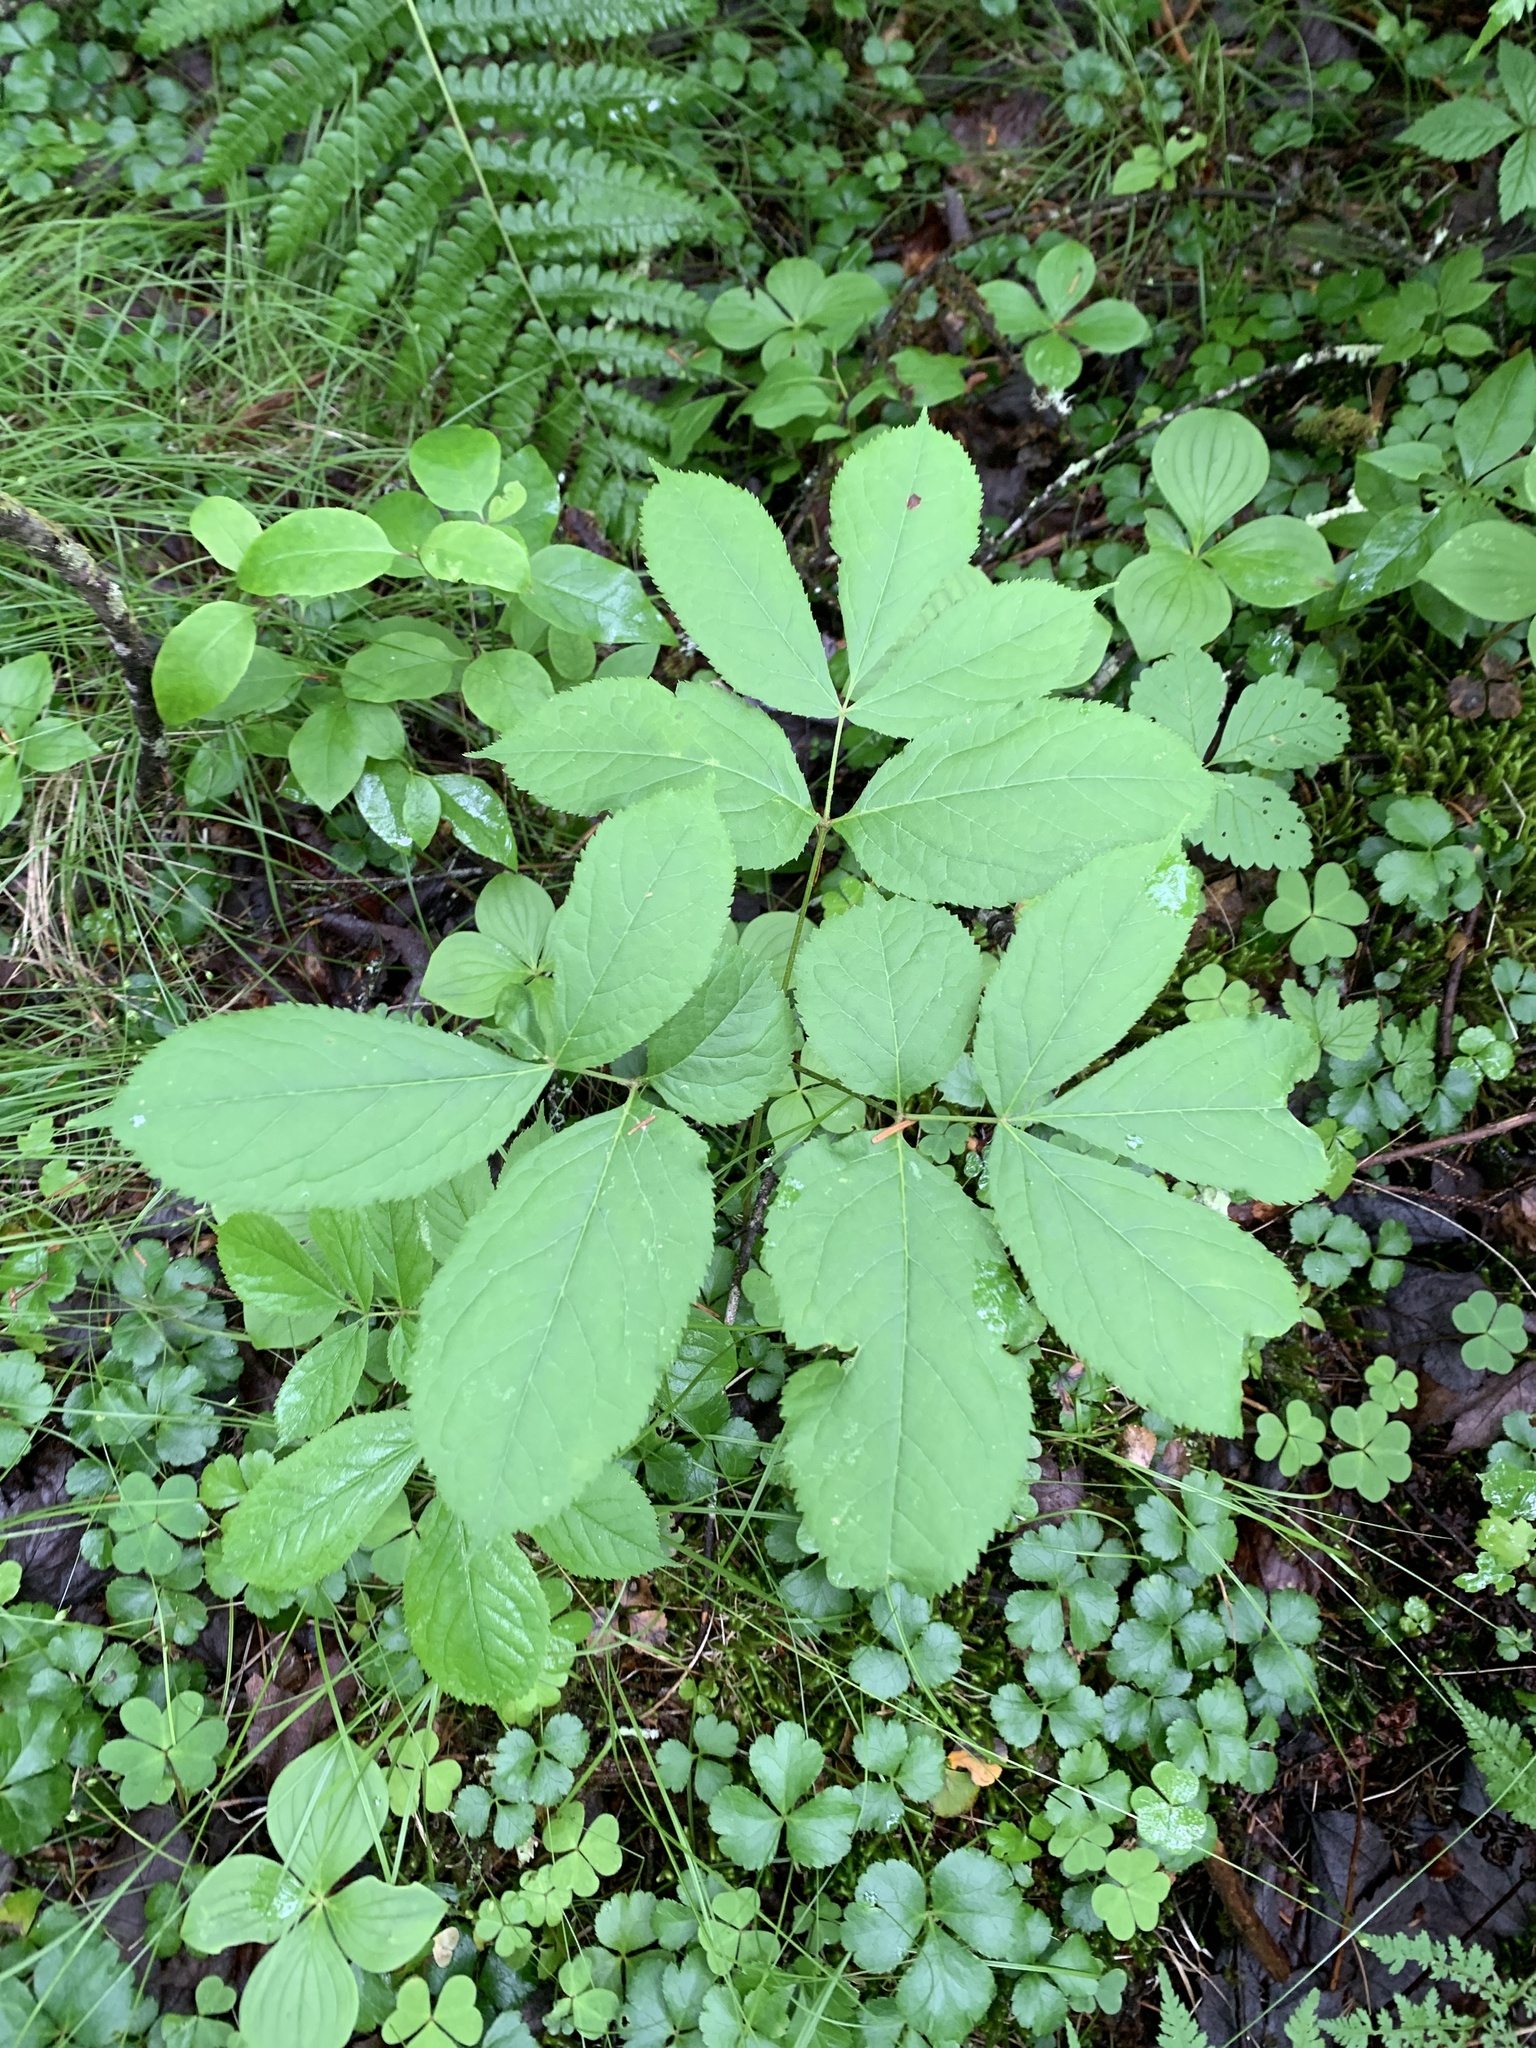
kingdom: Plantae
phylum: Tracheophyta
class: Magnoliopsida
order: Apiales
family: Araliaceae
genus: Aralia
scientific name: Aralia nudicaulis
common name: Wild sarsaparilla
